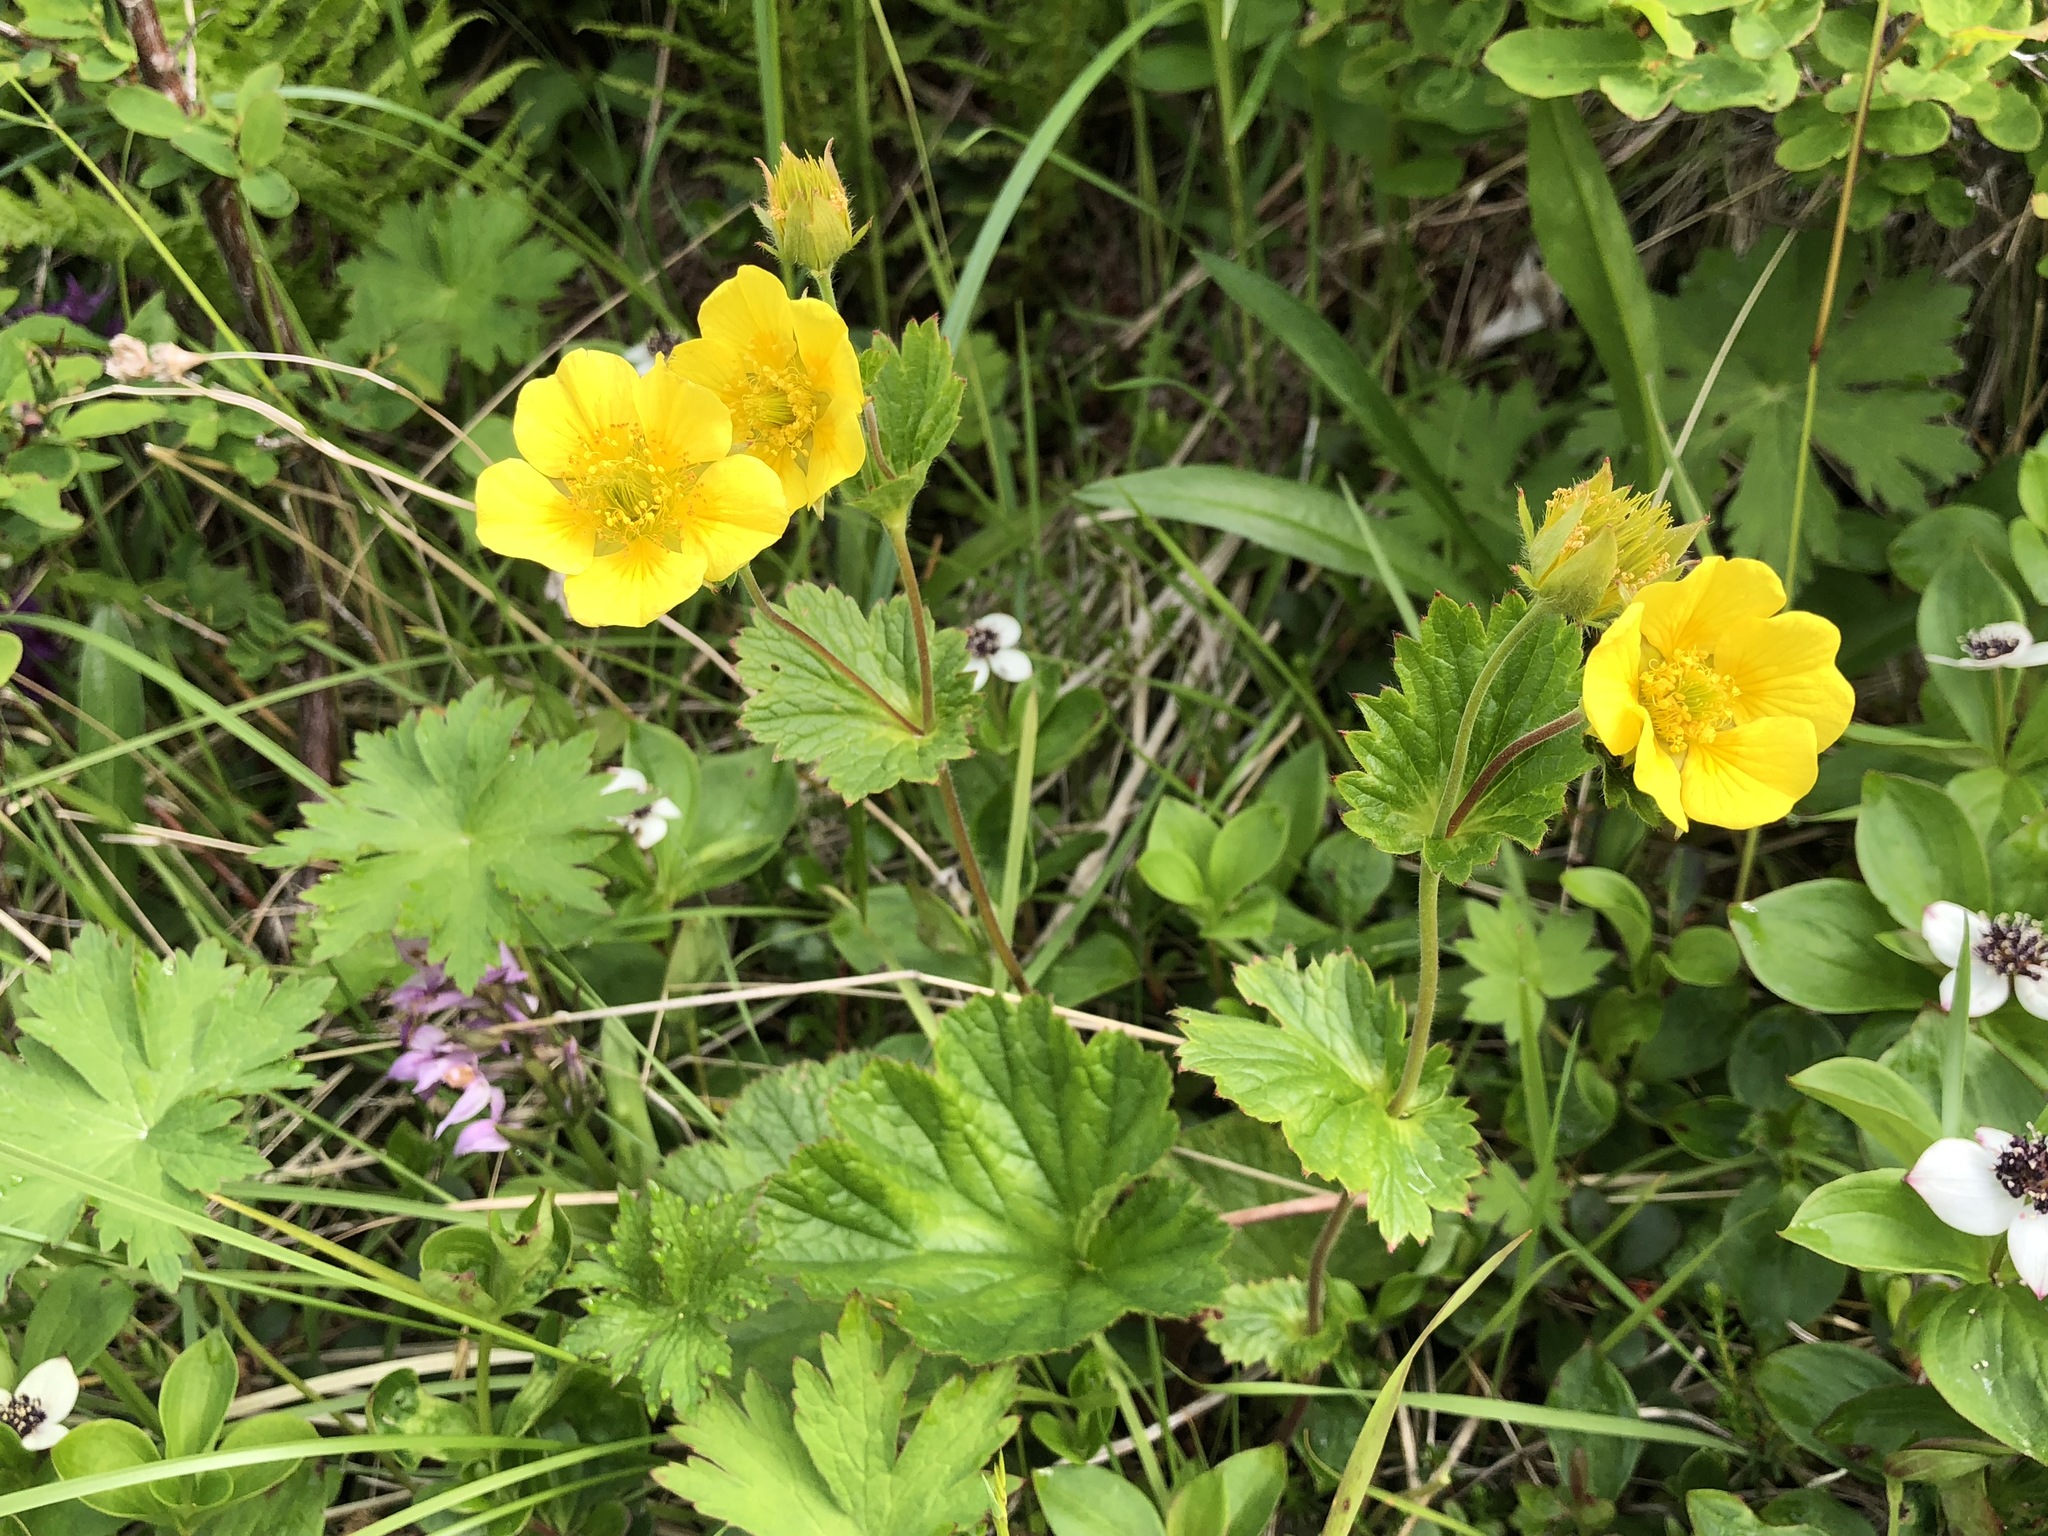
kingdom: Plantae
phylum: Tracheophyta
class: Magnoliopsida
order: Rosales
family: Rosaceae
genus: Geum
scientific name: Geum calthifolium
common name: Caltha-leaved avens
